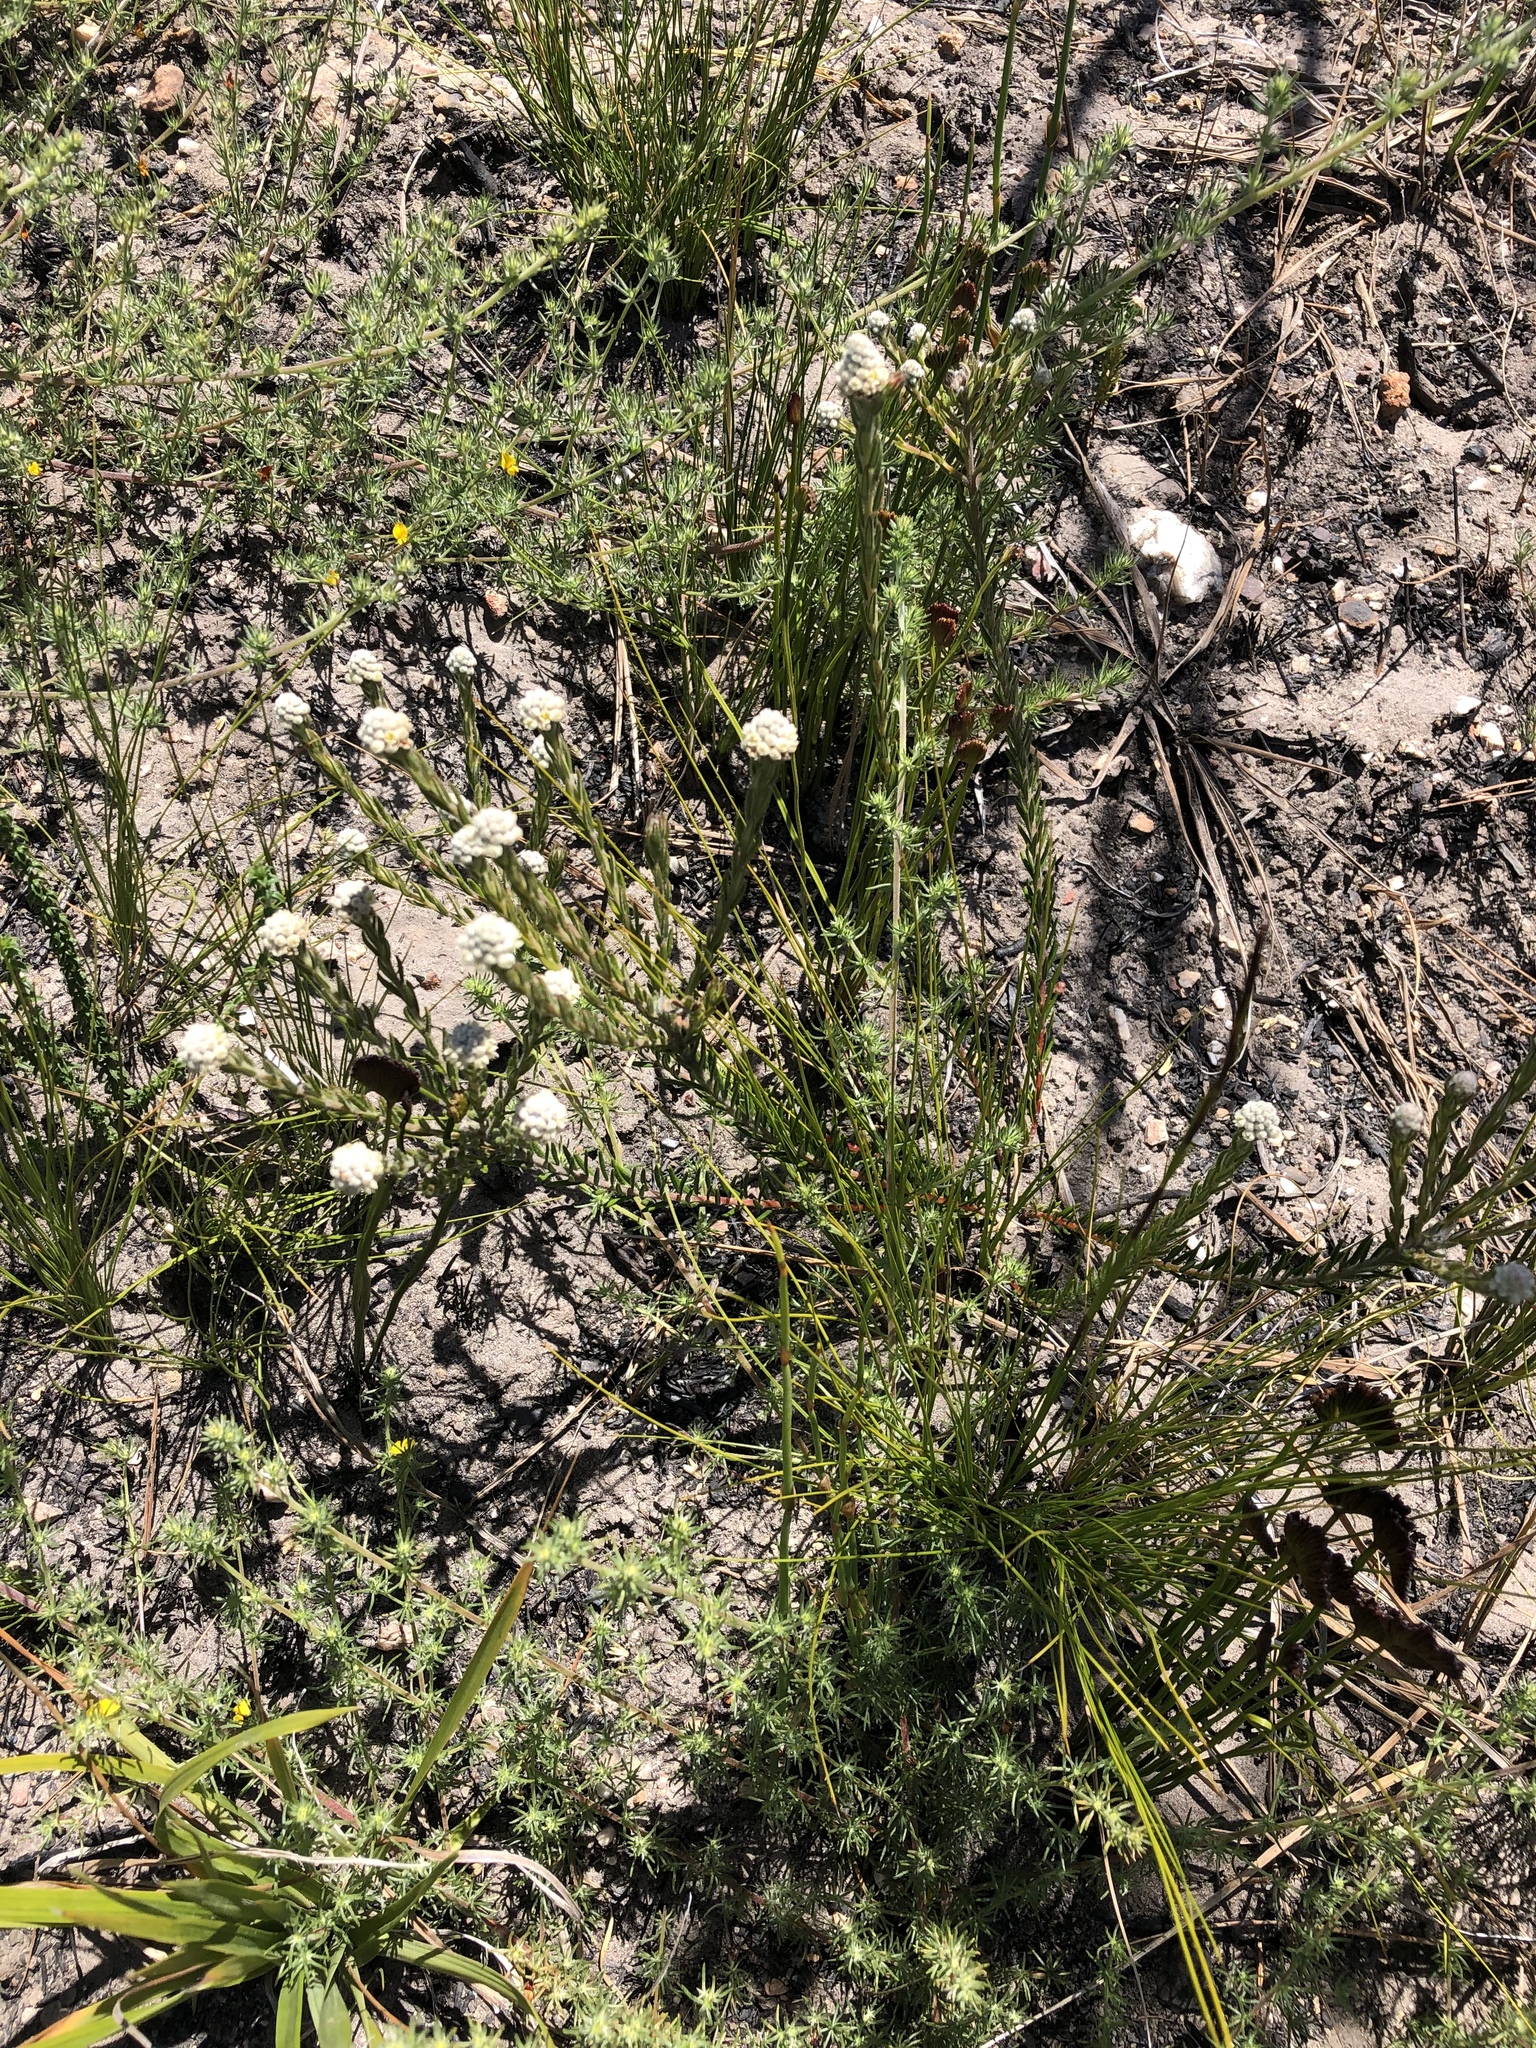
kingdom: Plantae
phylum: Tracheophyta
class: Magnoliopsida
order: Rosales
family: Rhamnaceae
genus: Phylica
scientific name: Phylica imberbis
